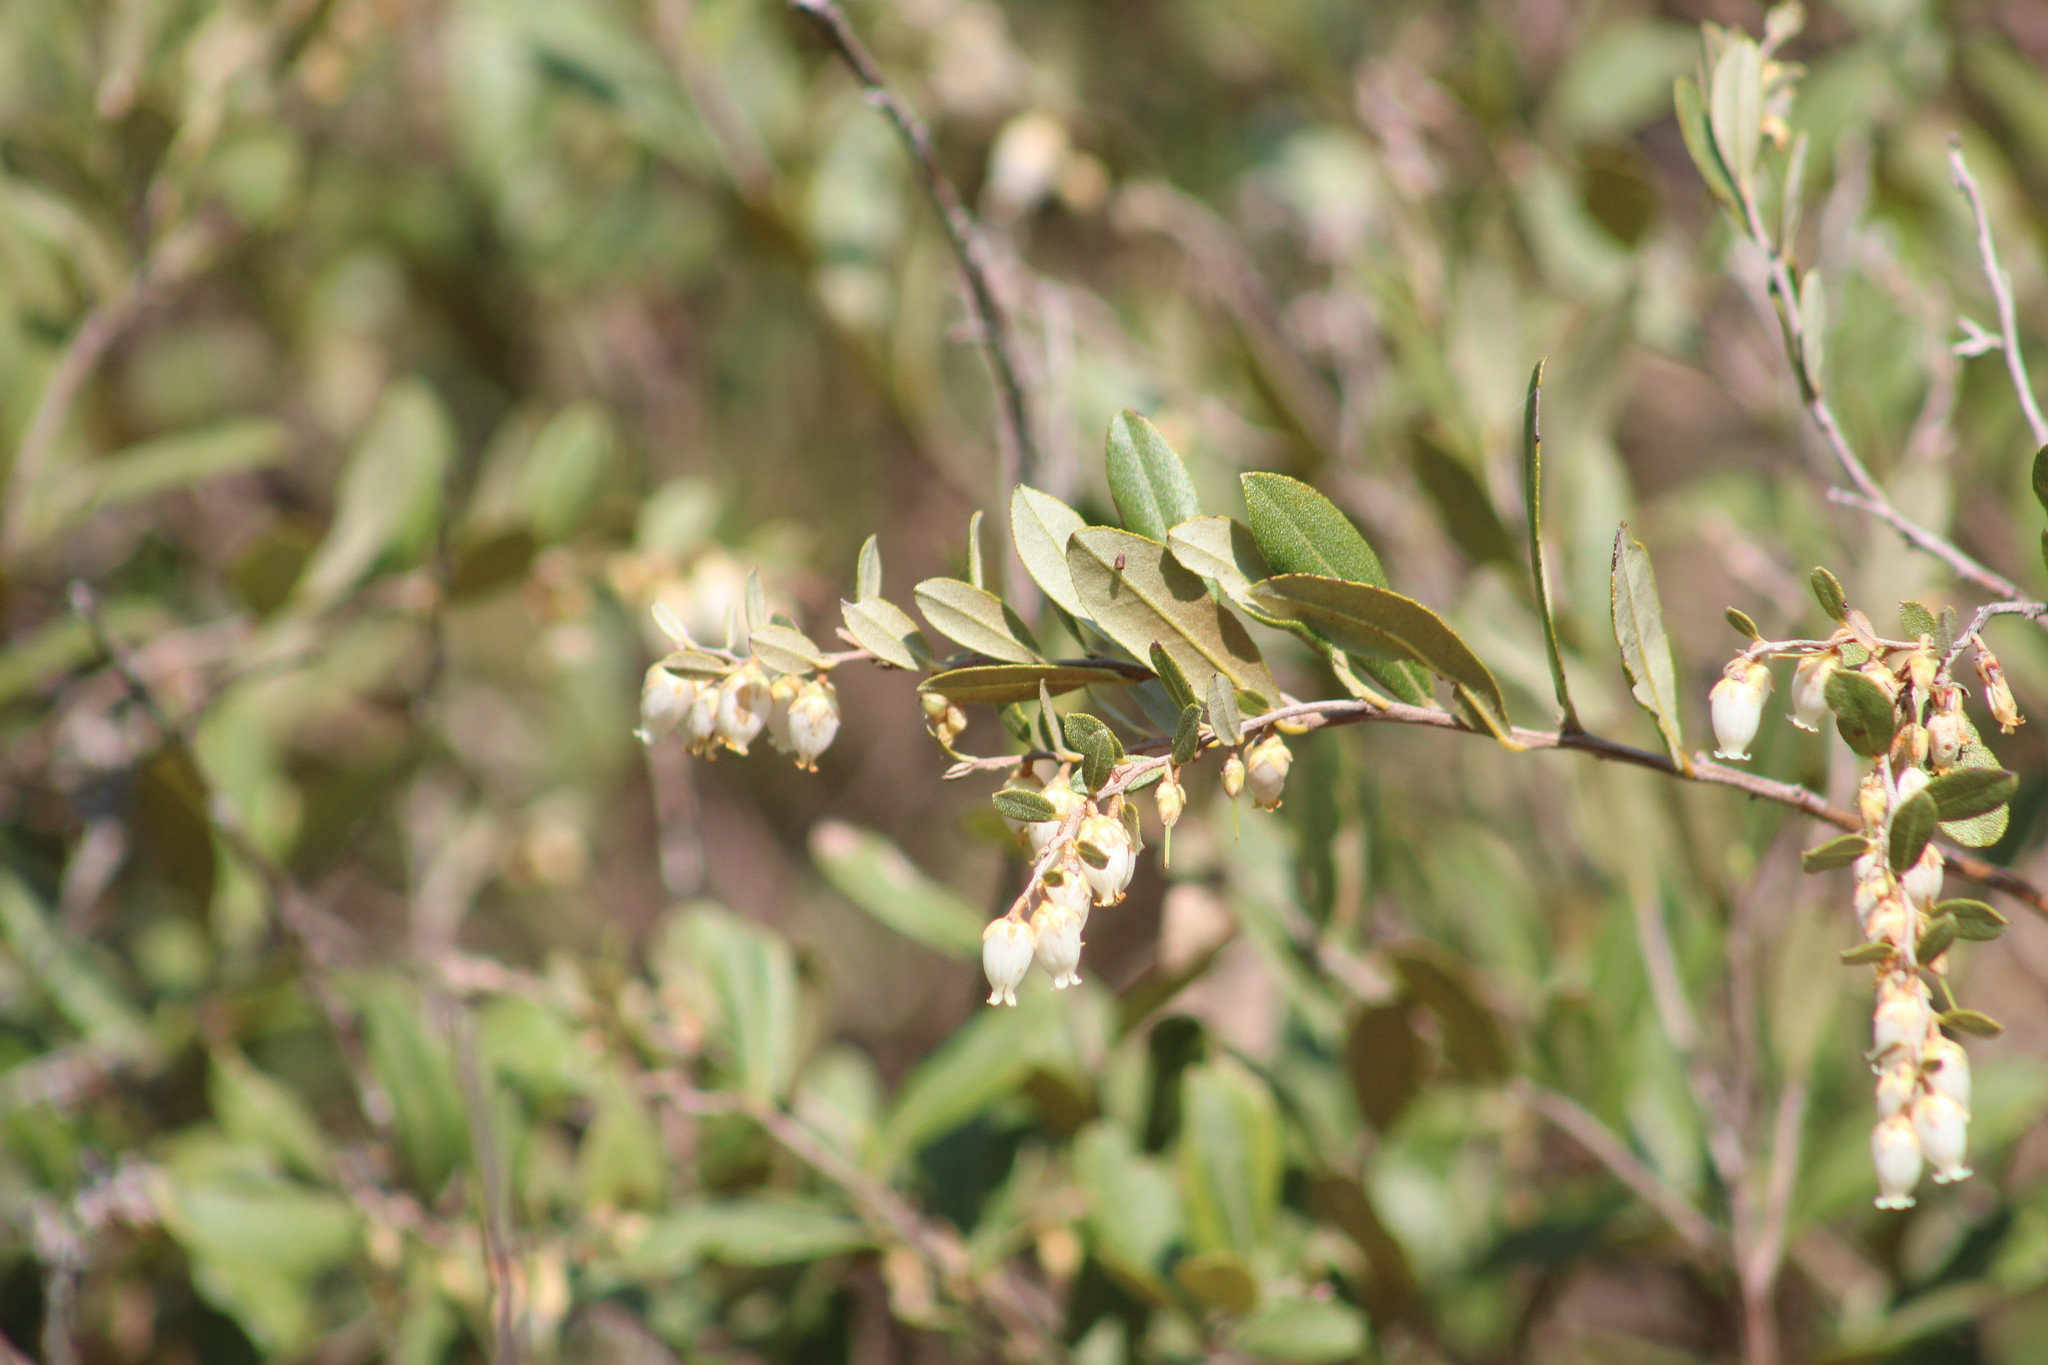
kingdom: Plantae
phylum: Tracheophyta
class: Magnoliopsida
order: Ericales
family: Ericaceae
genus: Chamaedaphne
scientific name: Chamaedaphne calyculata
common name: Leatherleaf
